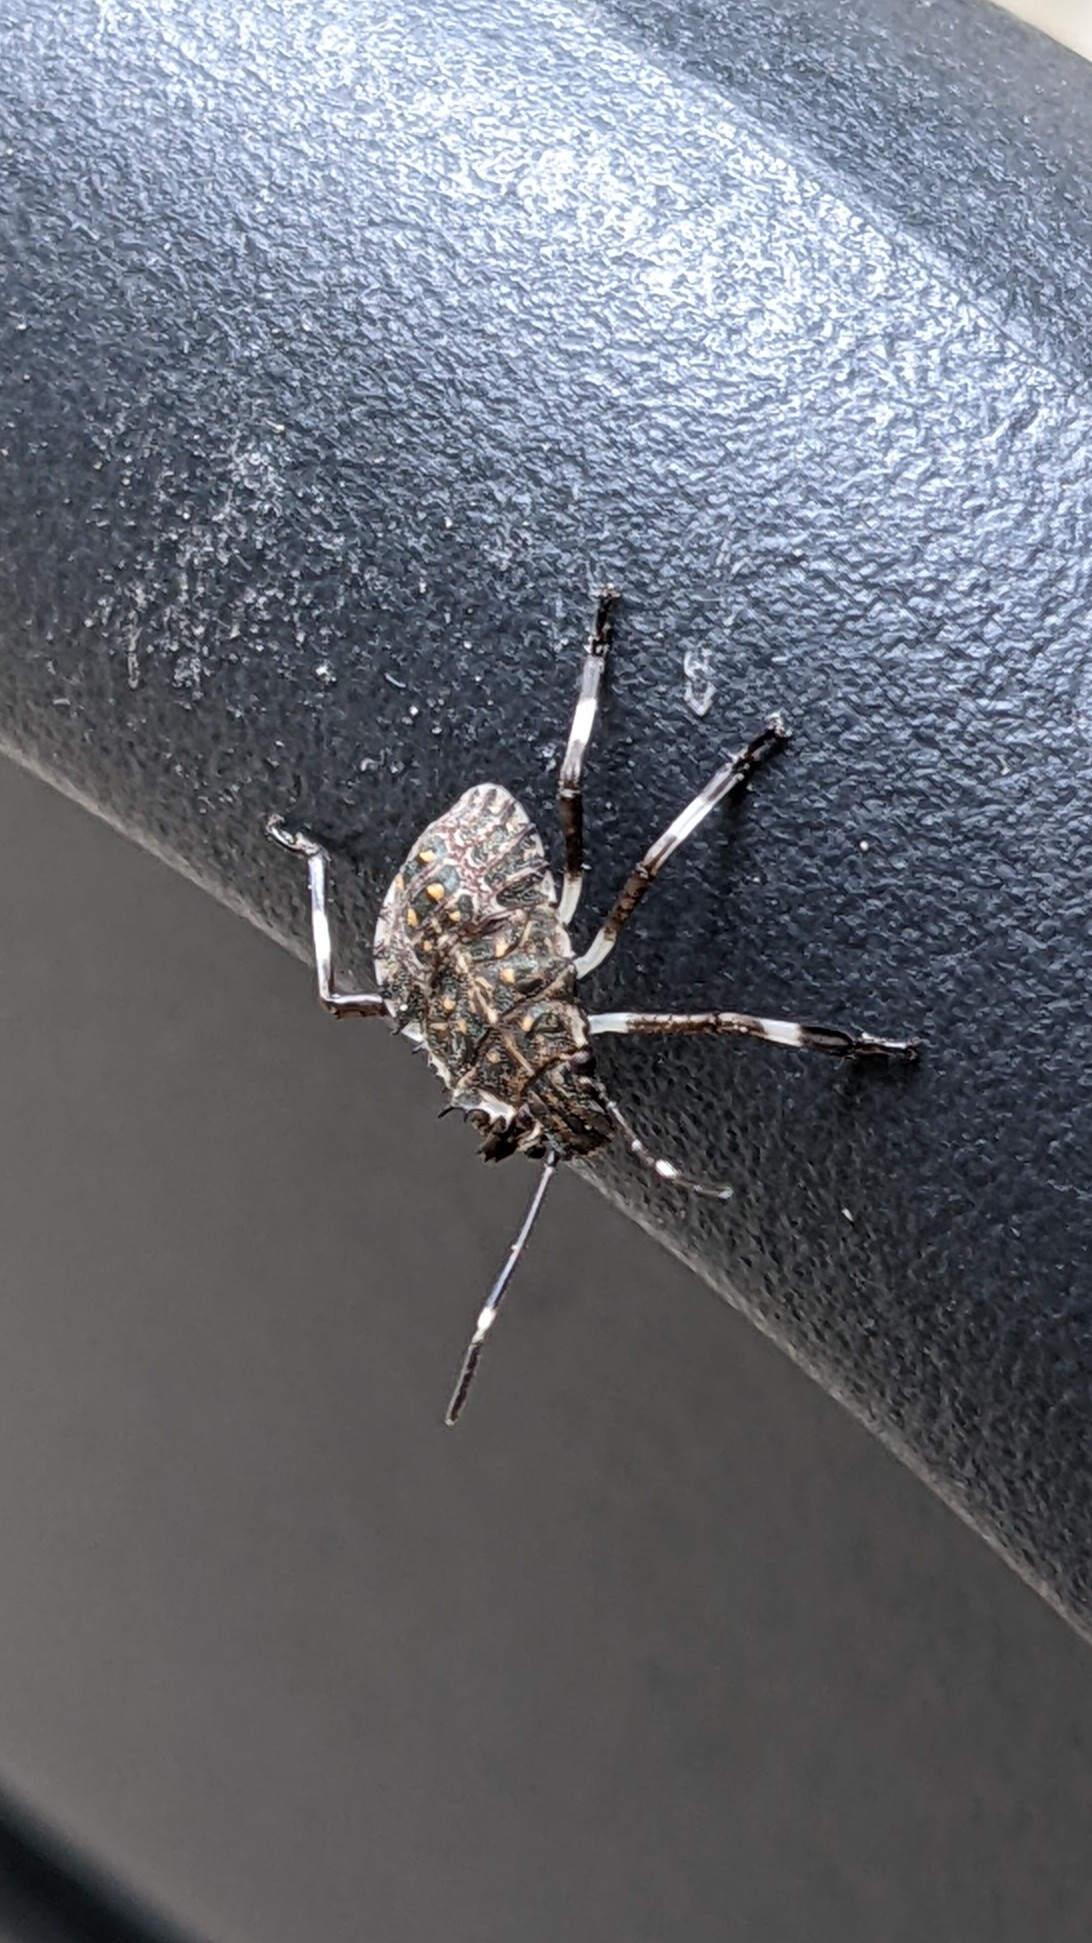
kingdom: Animalia
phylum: Arthropoda
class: Insecta
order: Hemiptera
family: Pentatomidae
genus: Halyomorpha
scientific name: Halyomorpha halys
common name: Brown marmorated stink bug
